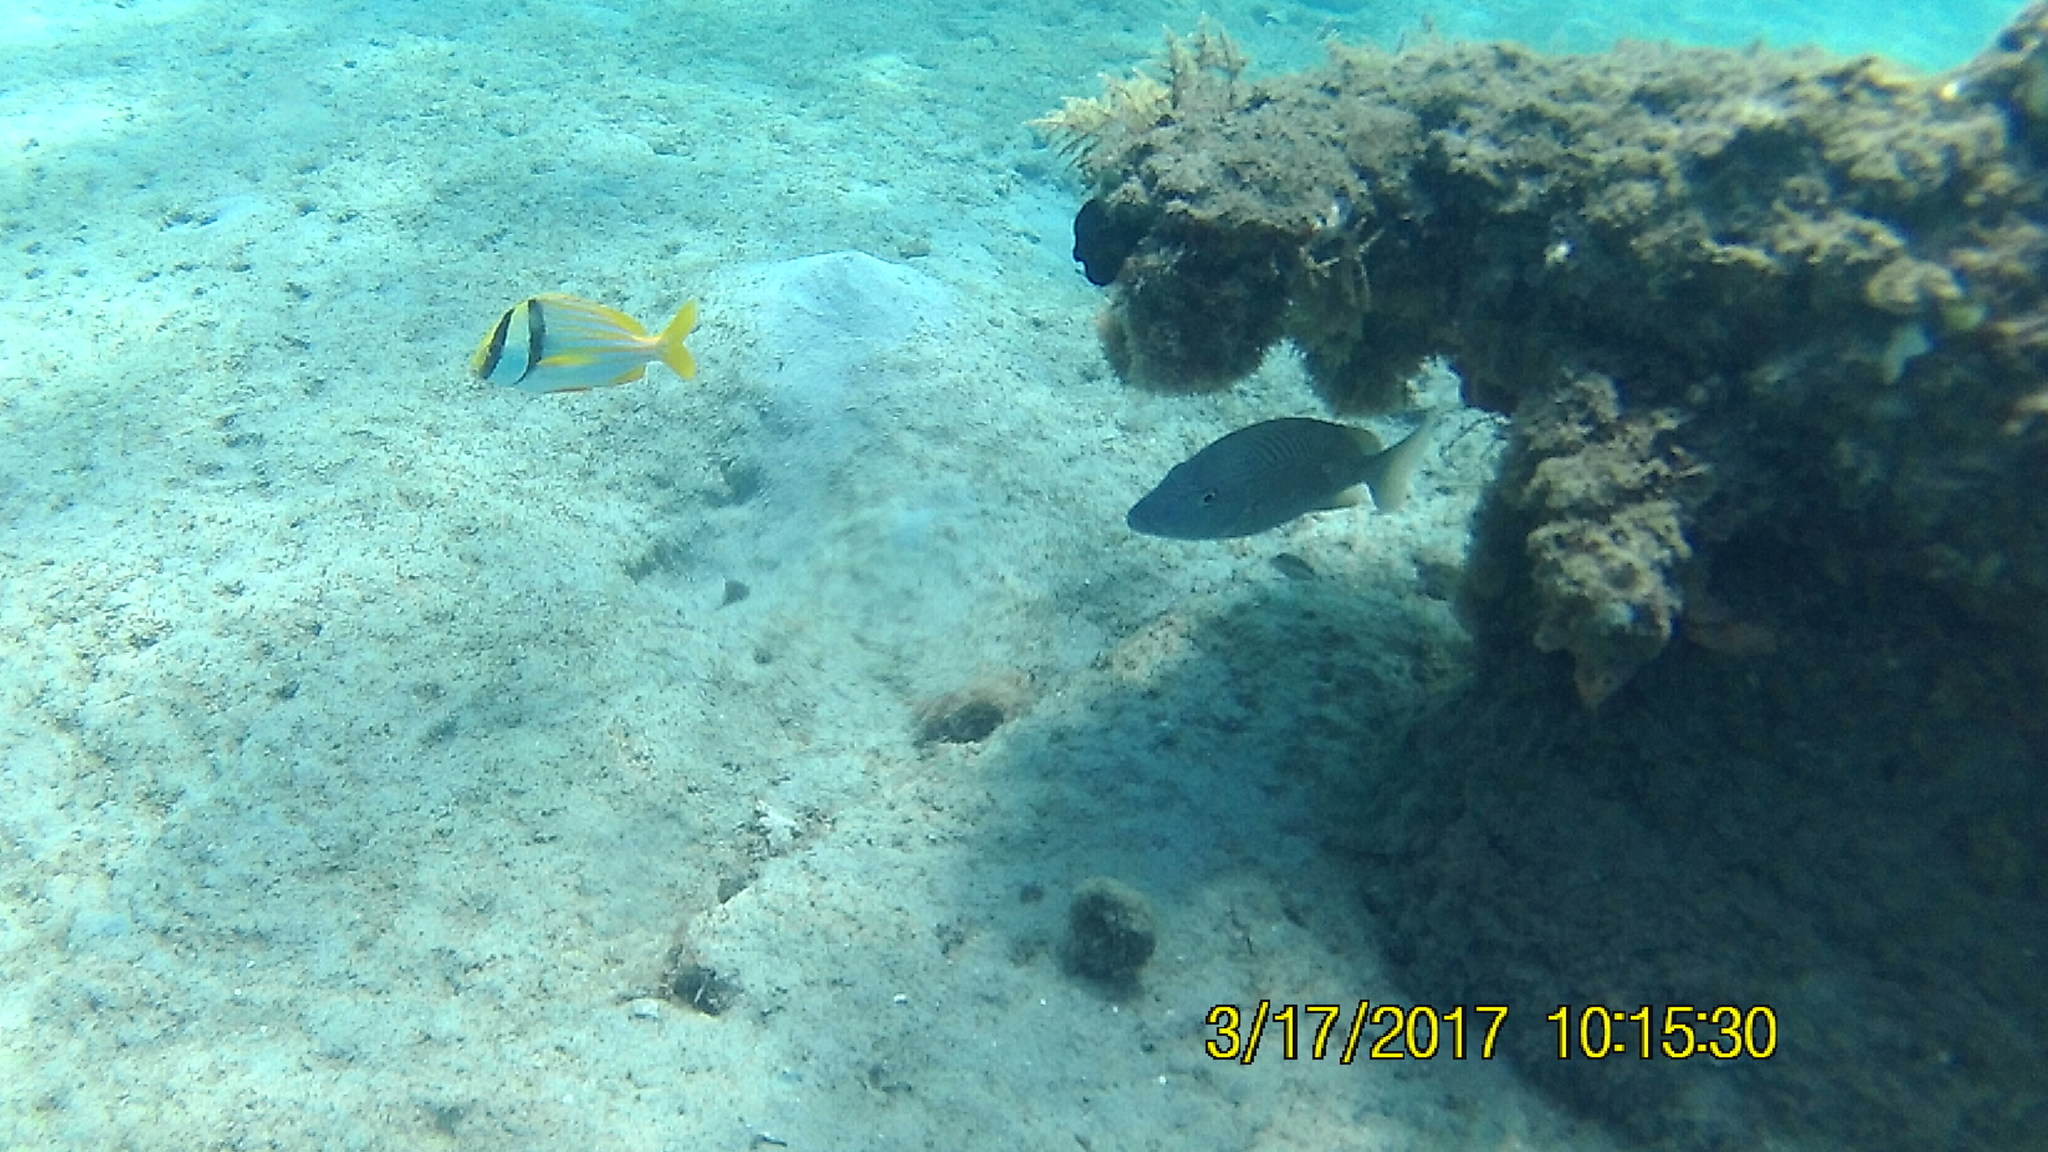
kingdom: Animalia
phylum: Chordata
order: Perciformes
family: Haemulidae
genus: Anisotremus
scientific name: Anisotremus virginicus
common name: Porkfish
